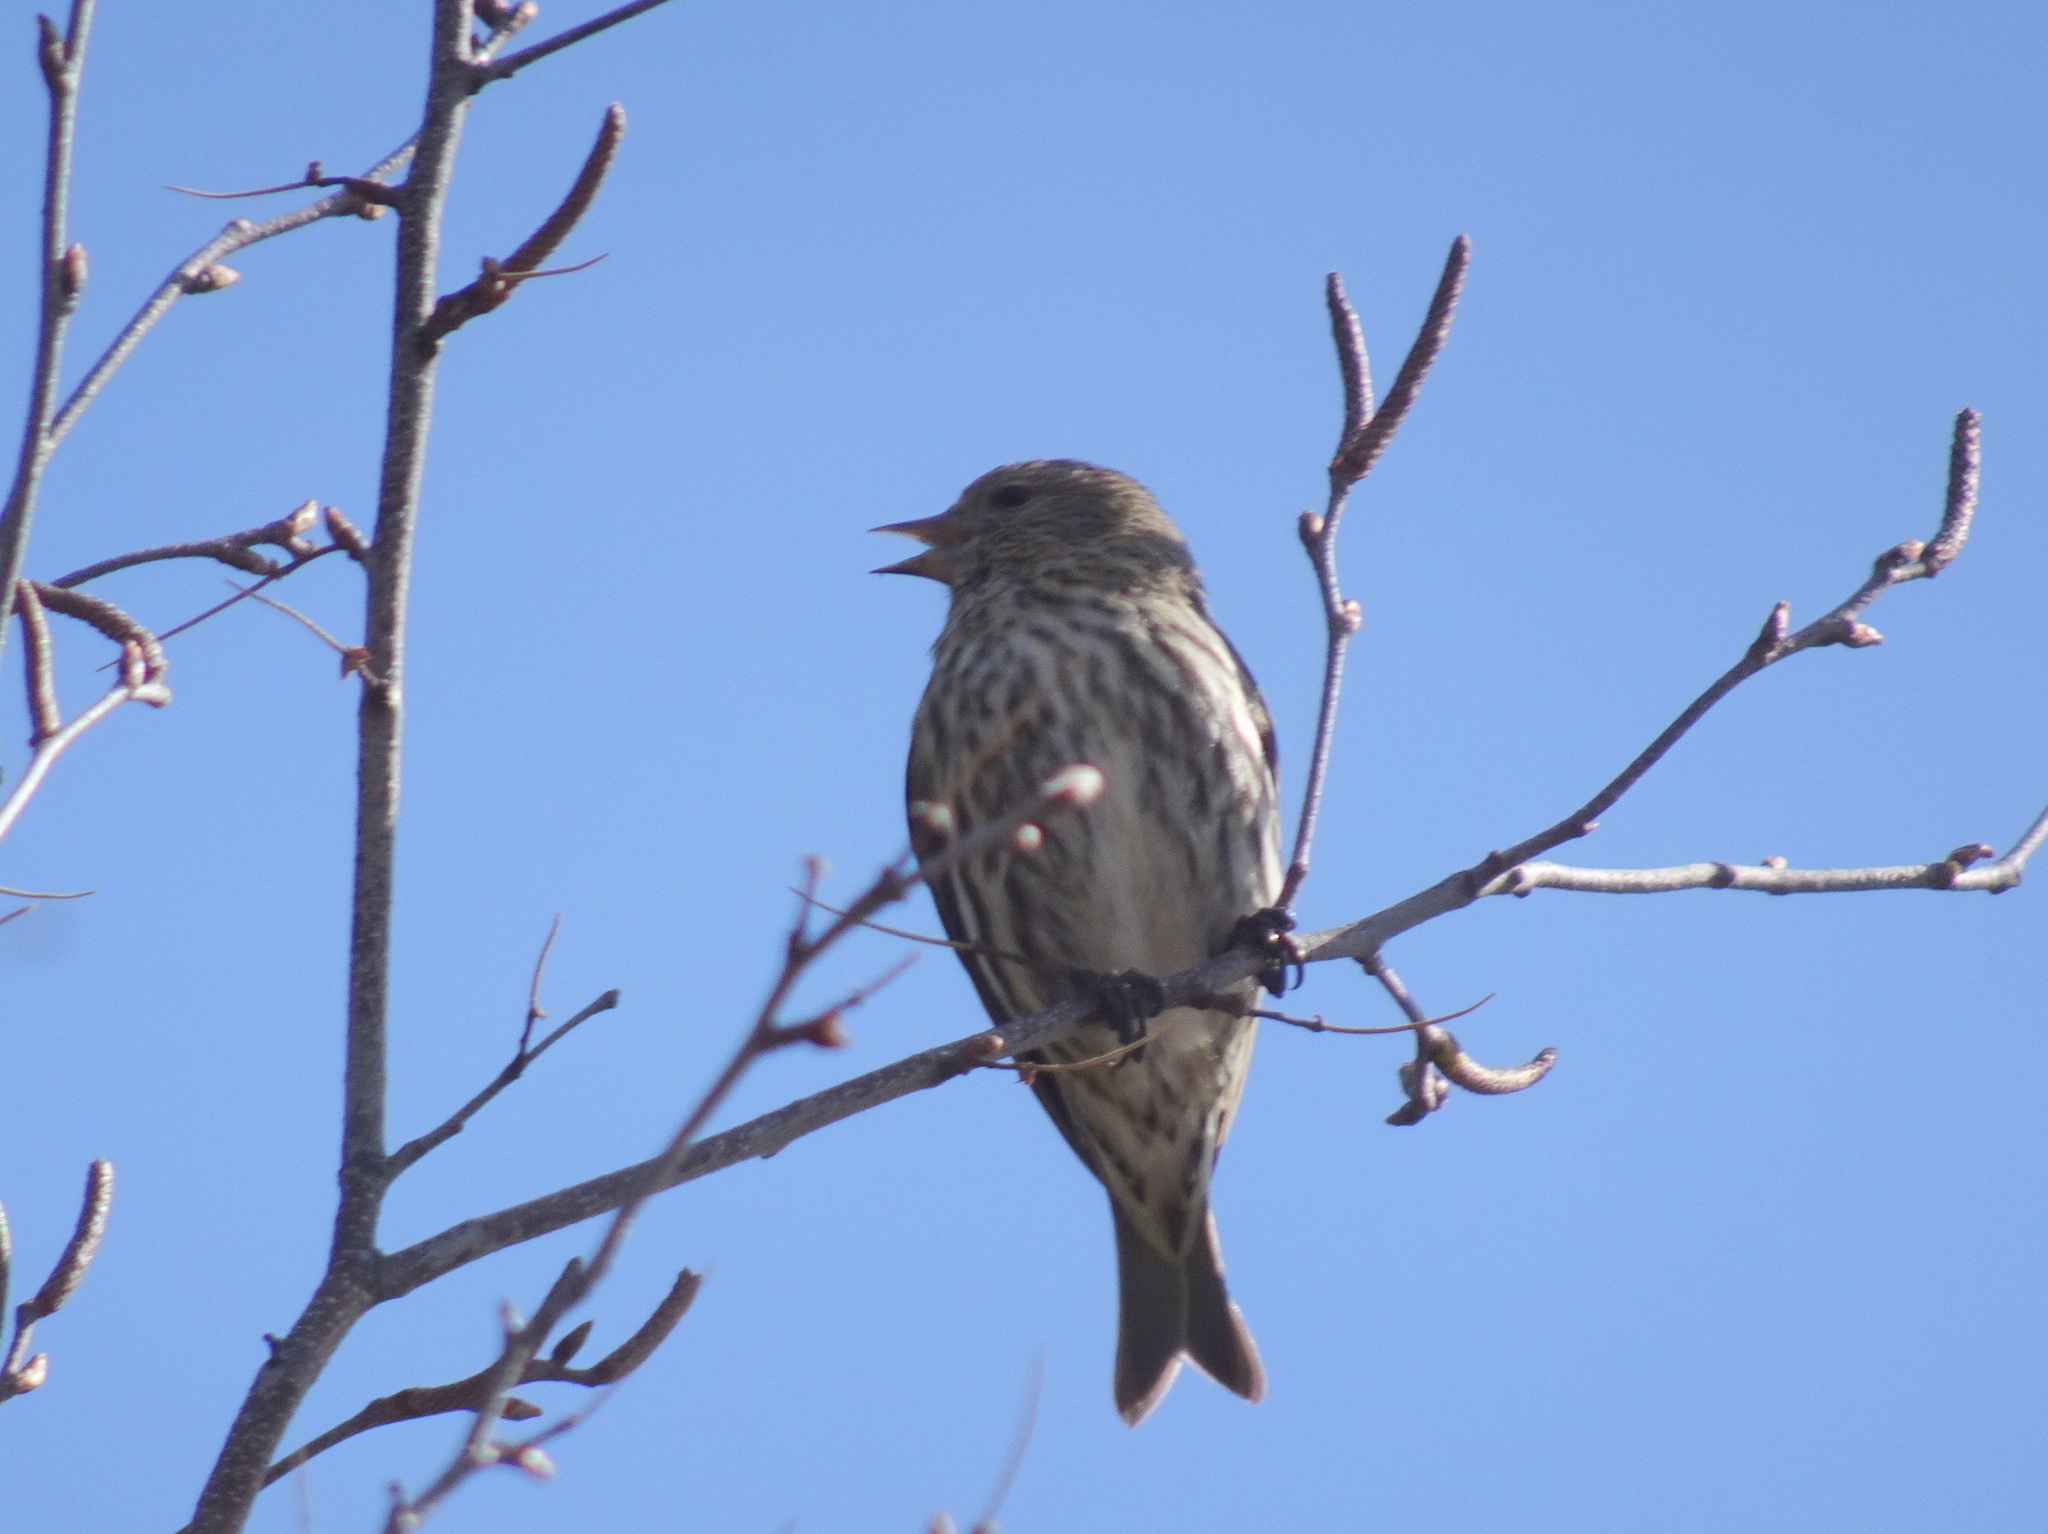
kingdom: Animalia
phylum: Chordata
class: Aves
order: Passeriformes
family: Fringillidae
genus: Spinus
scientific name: Spinus pinus
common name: Pine siskin
